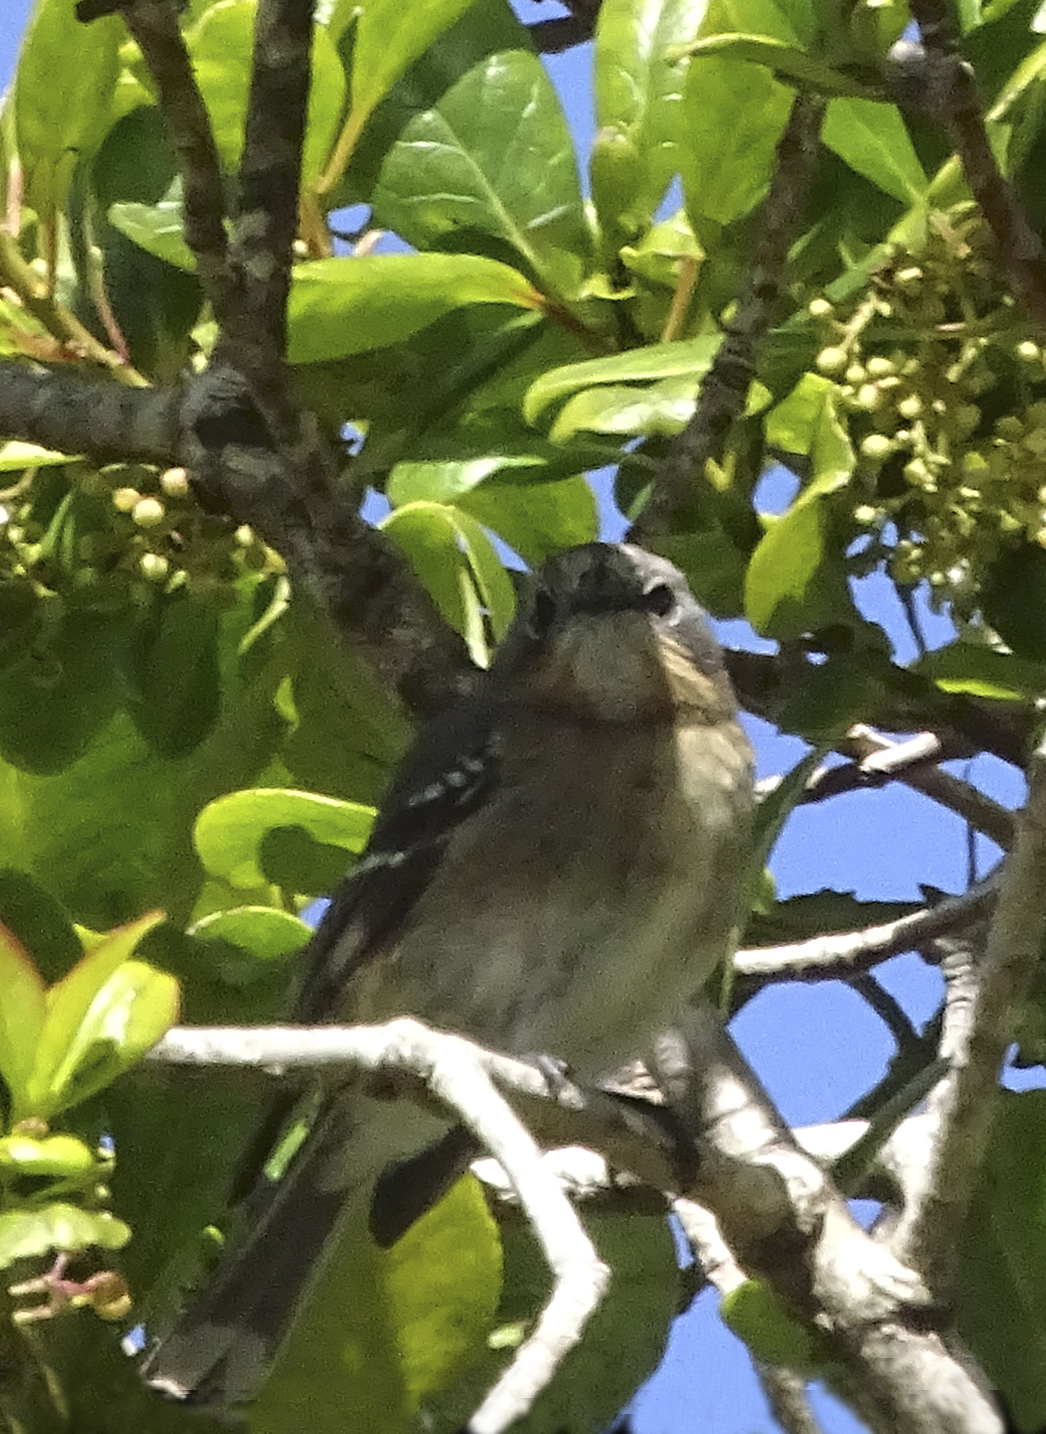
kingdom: Animalia
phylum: Chordata
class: Aves
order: Passeriformes
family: Monarchidae
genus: Chasiempis
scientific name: Chasiempis sclateri
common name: Kauai elepaio
